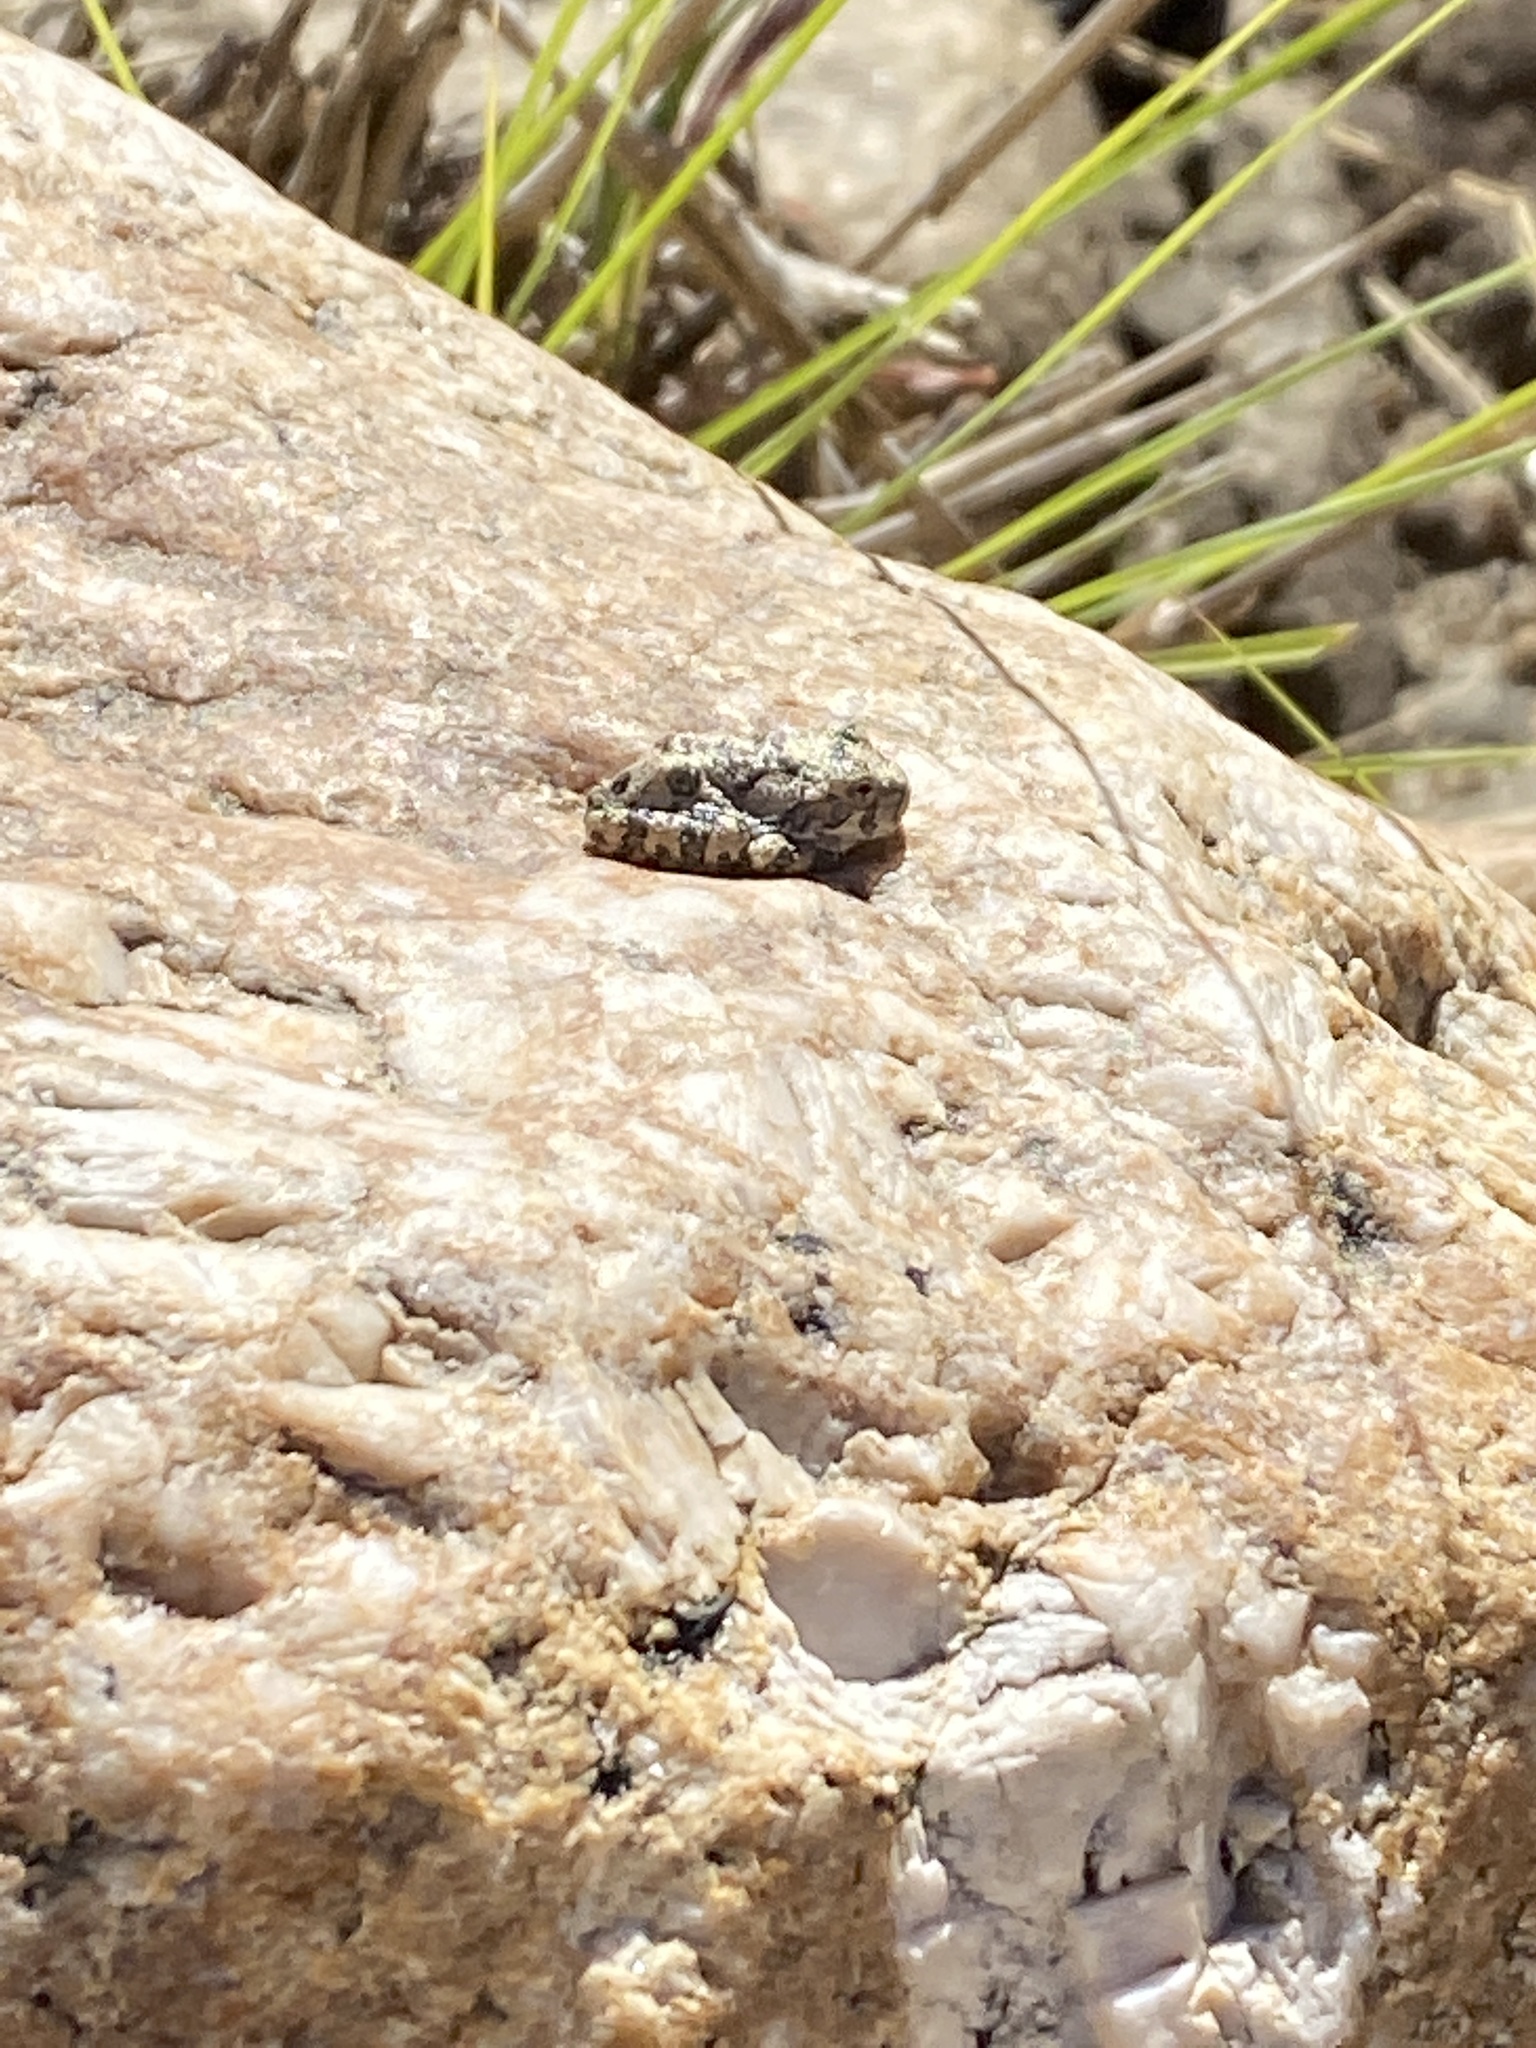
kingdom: Animalia
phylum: Chordata
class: Amphibia
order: Anura
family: Hylidae
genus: Dryophytes
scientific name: Dryophytes arenicolor
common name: Canyon treefrog
